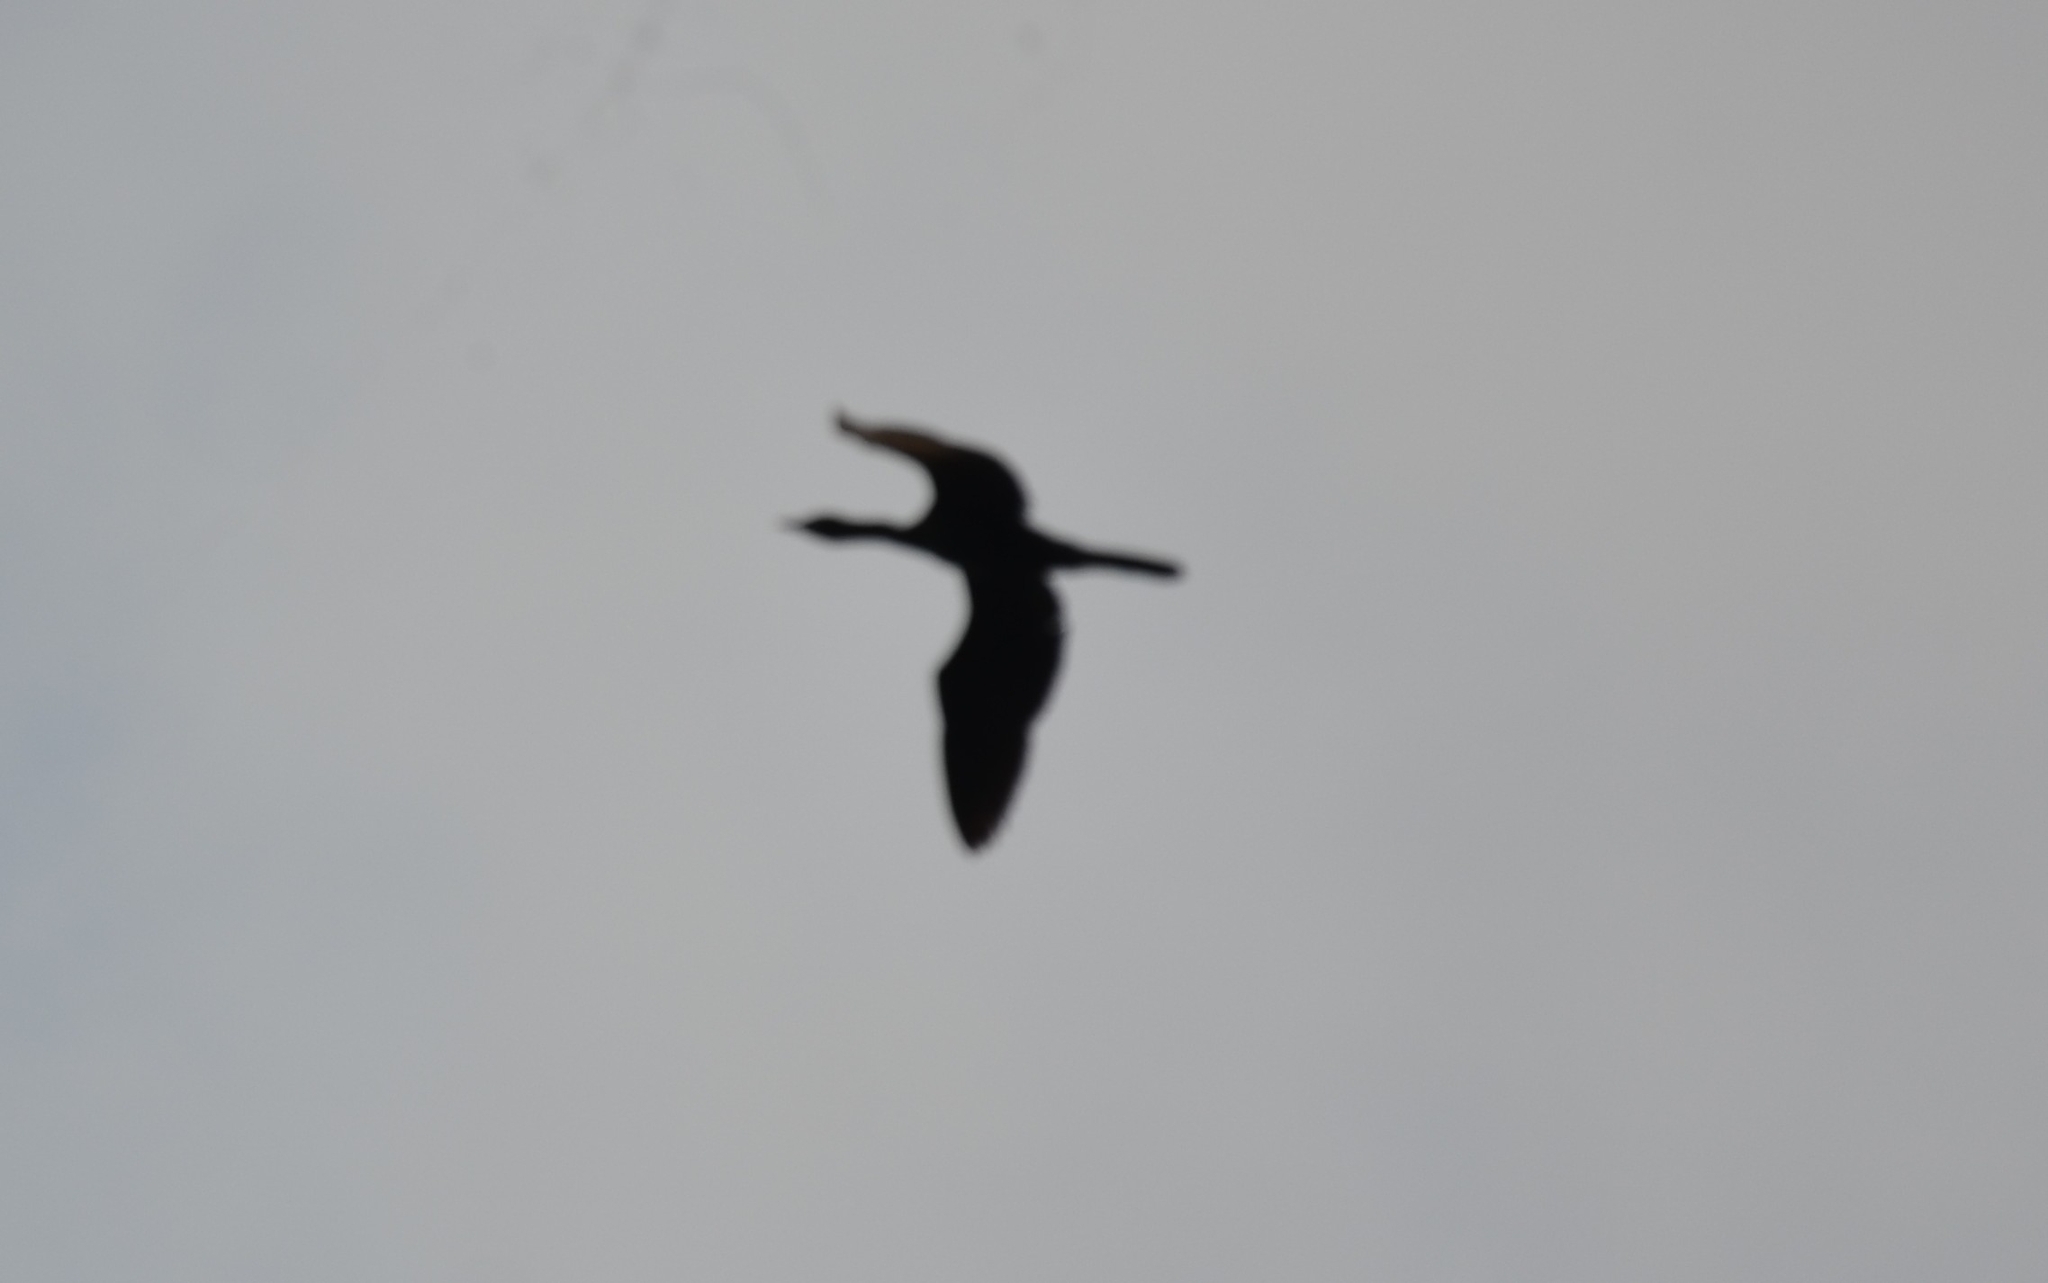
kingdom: Animalia
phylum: Chordata
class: Aves
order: Suliformes
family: Phalacrocoracidae
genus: Microcarbo
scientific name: Microcarbo niger
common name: Little cormorant
